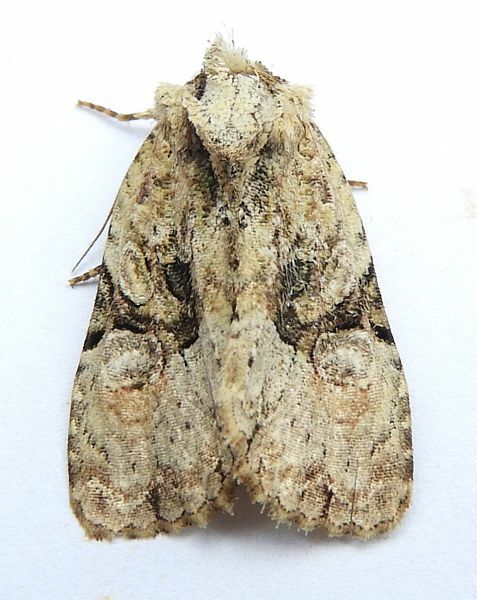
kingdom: Animalia
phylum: Arthropoda
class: Insecta
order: Lepidoptera
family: Noctuidae
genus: Oligia
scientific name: Oligia modica
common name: Black-banded brocade
